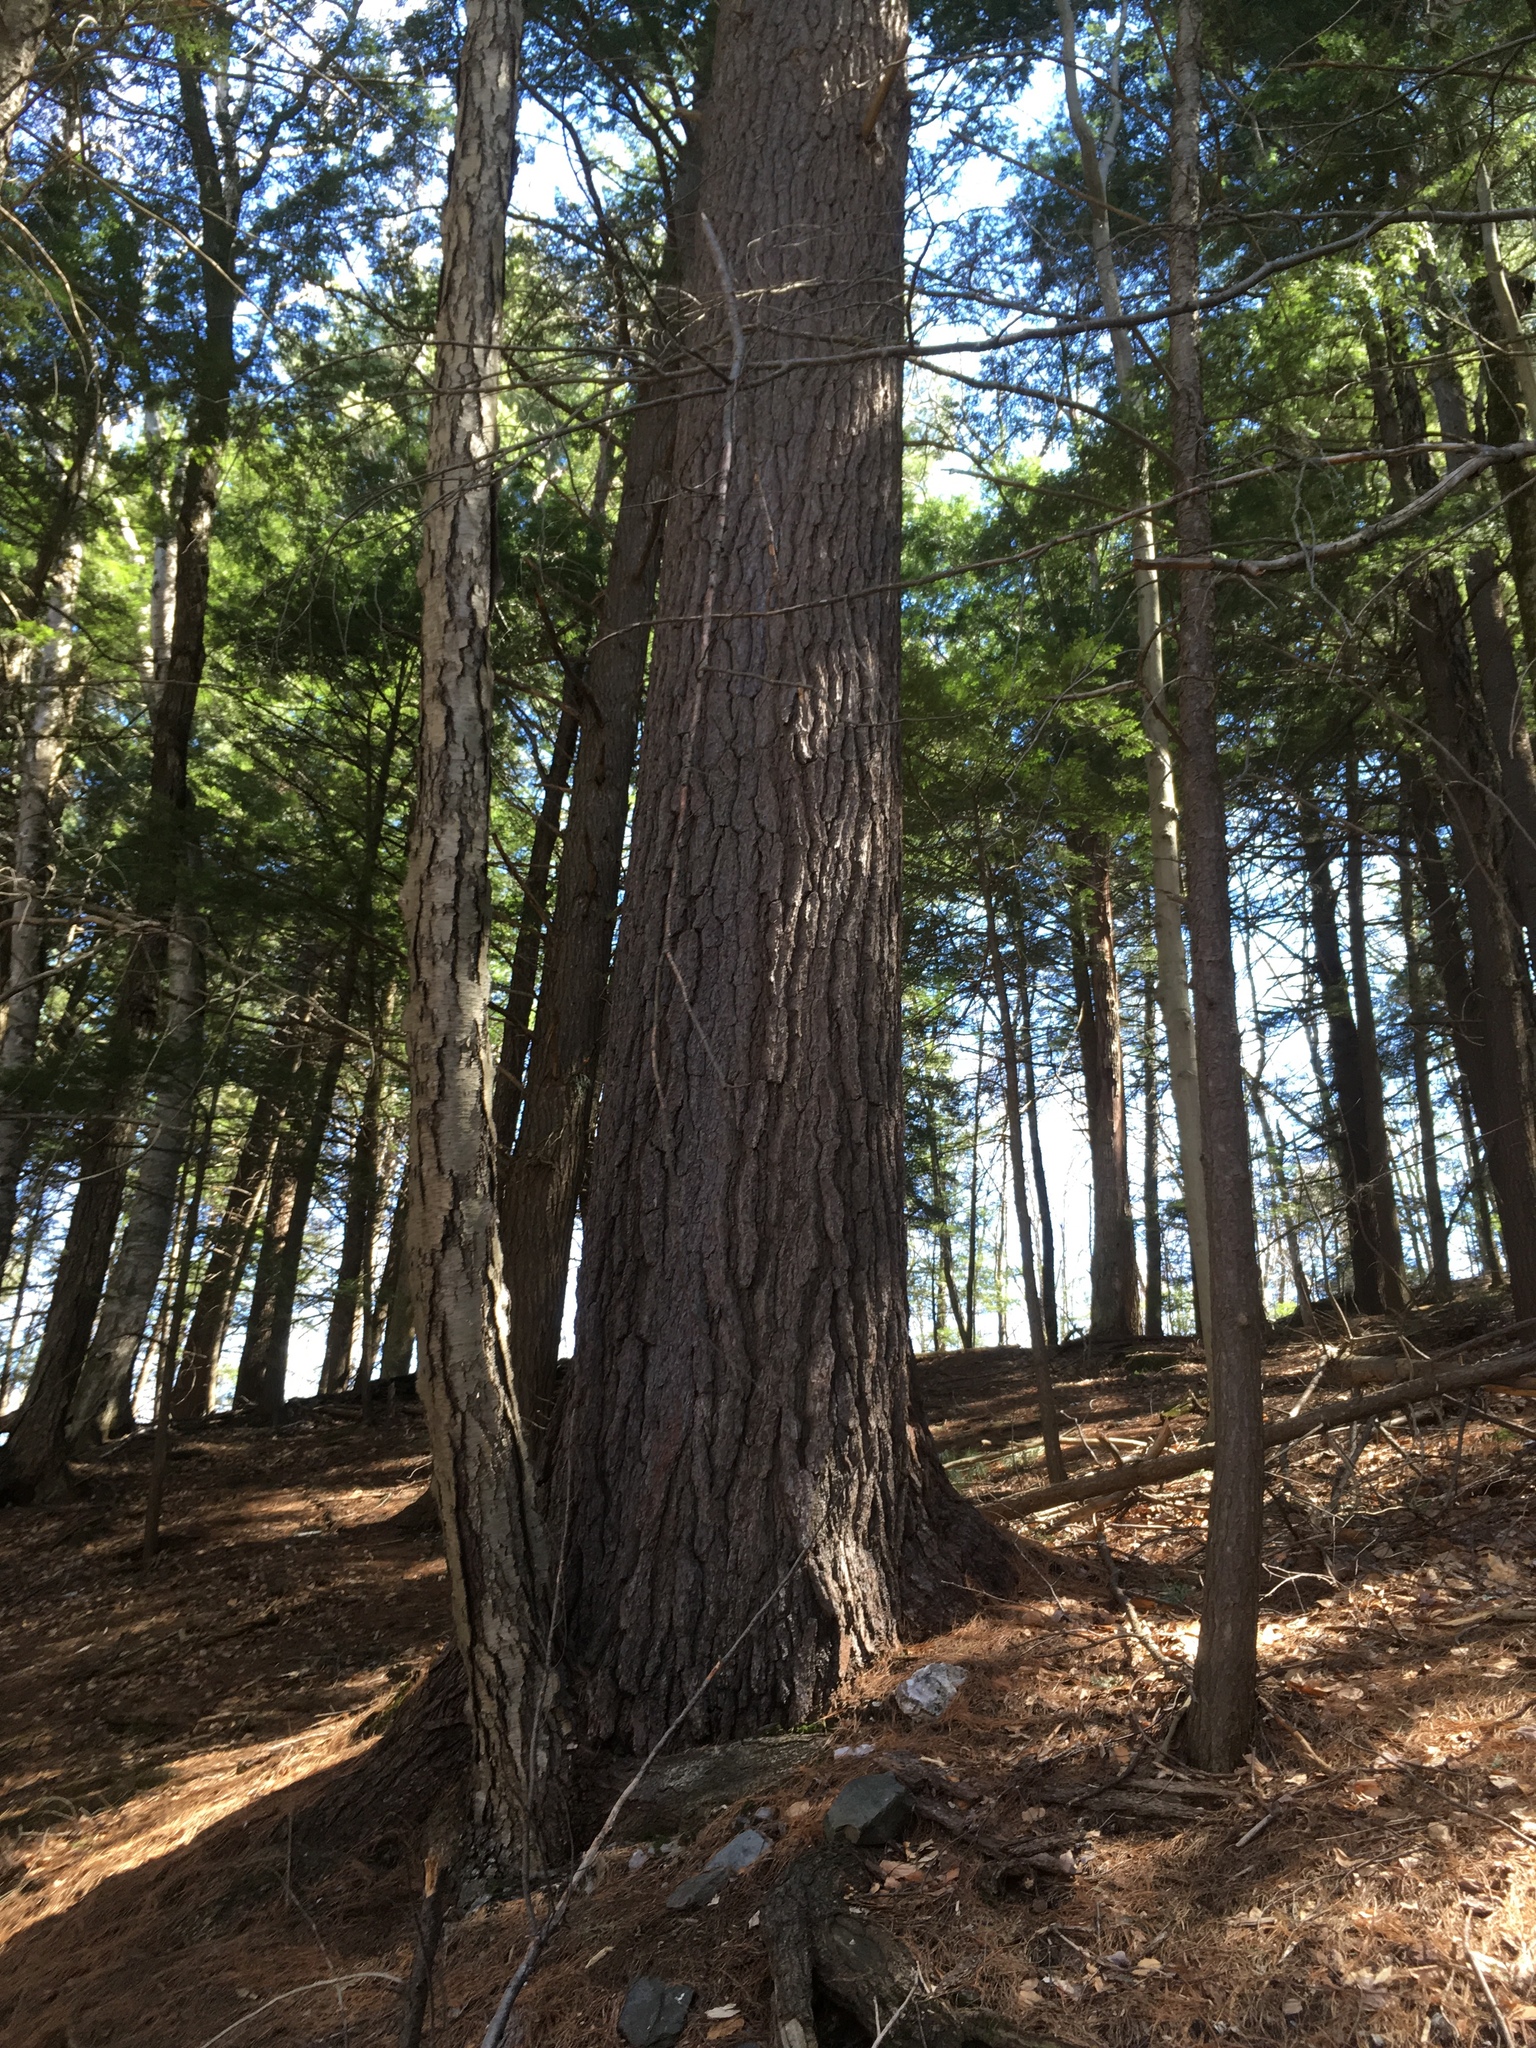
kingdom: Plantae
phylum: Tracheophyta
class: Pinopsida
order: Pinales
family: Pinaceae
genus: Pinus
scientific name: Pinus strobus
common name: Weymouth pine
